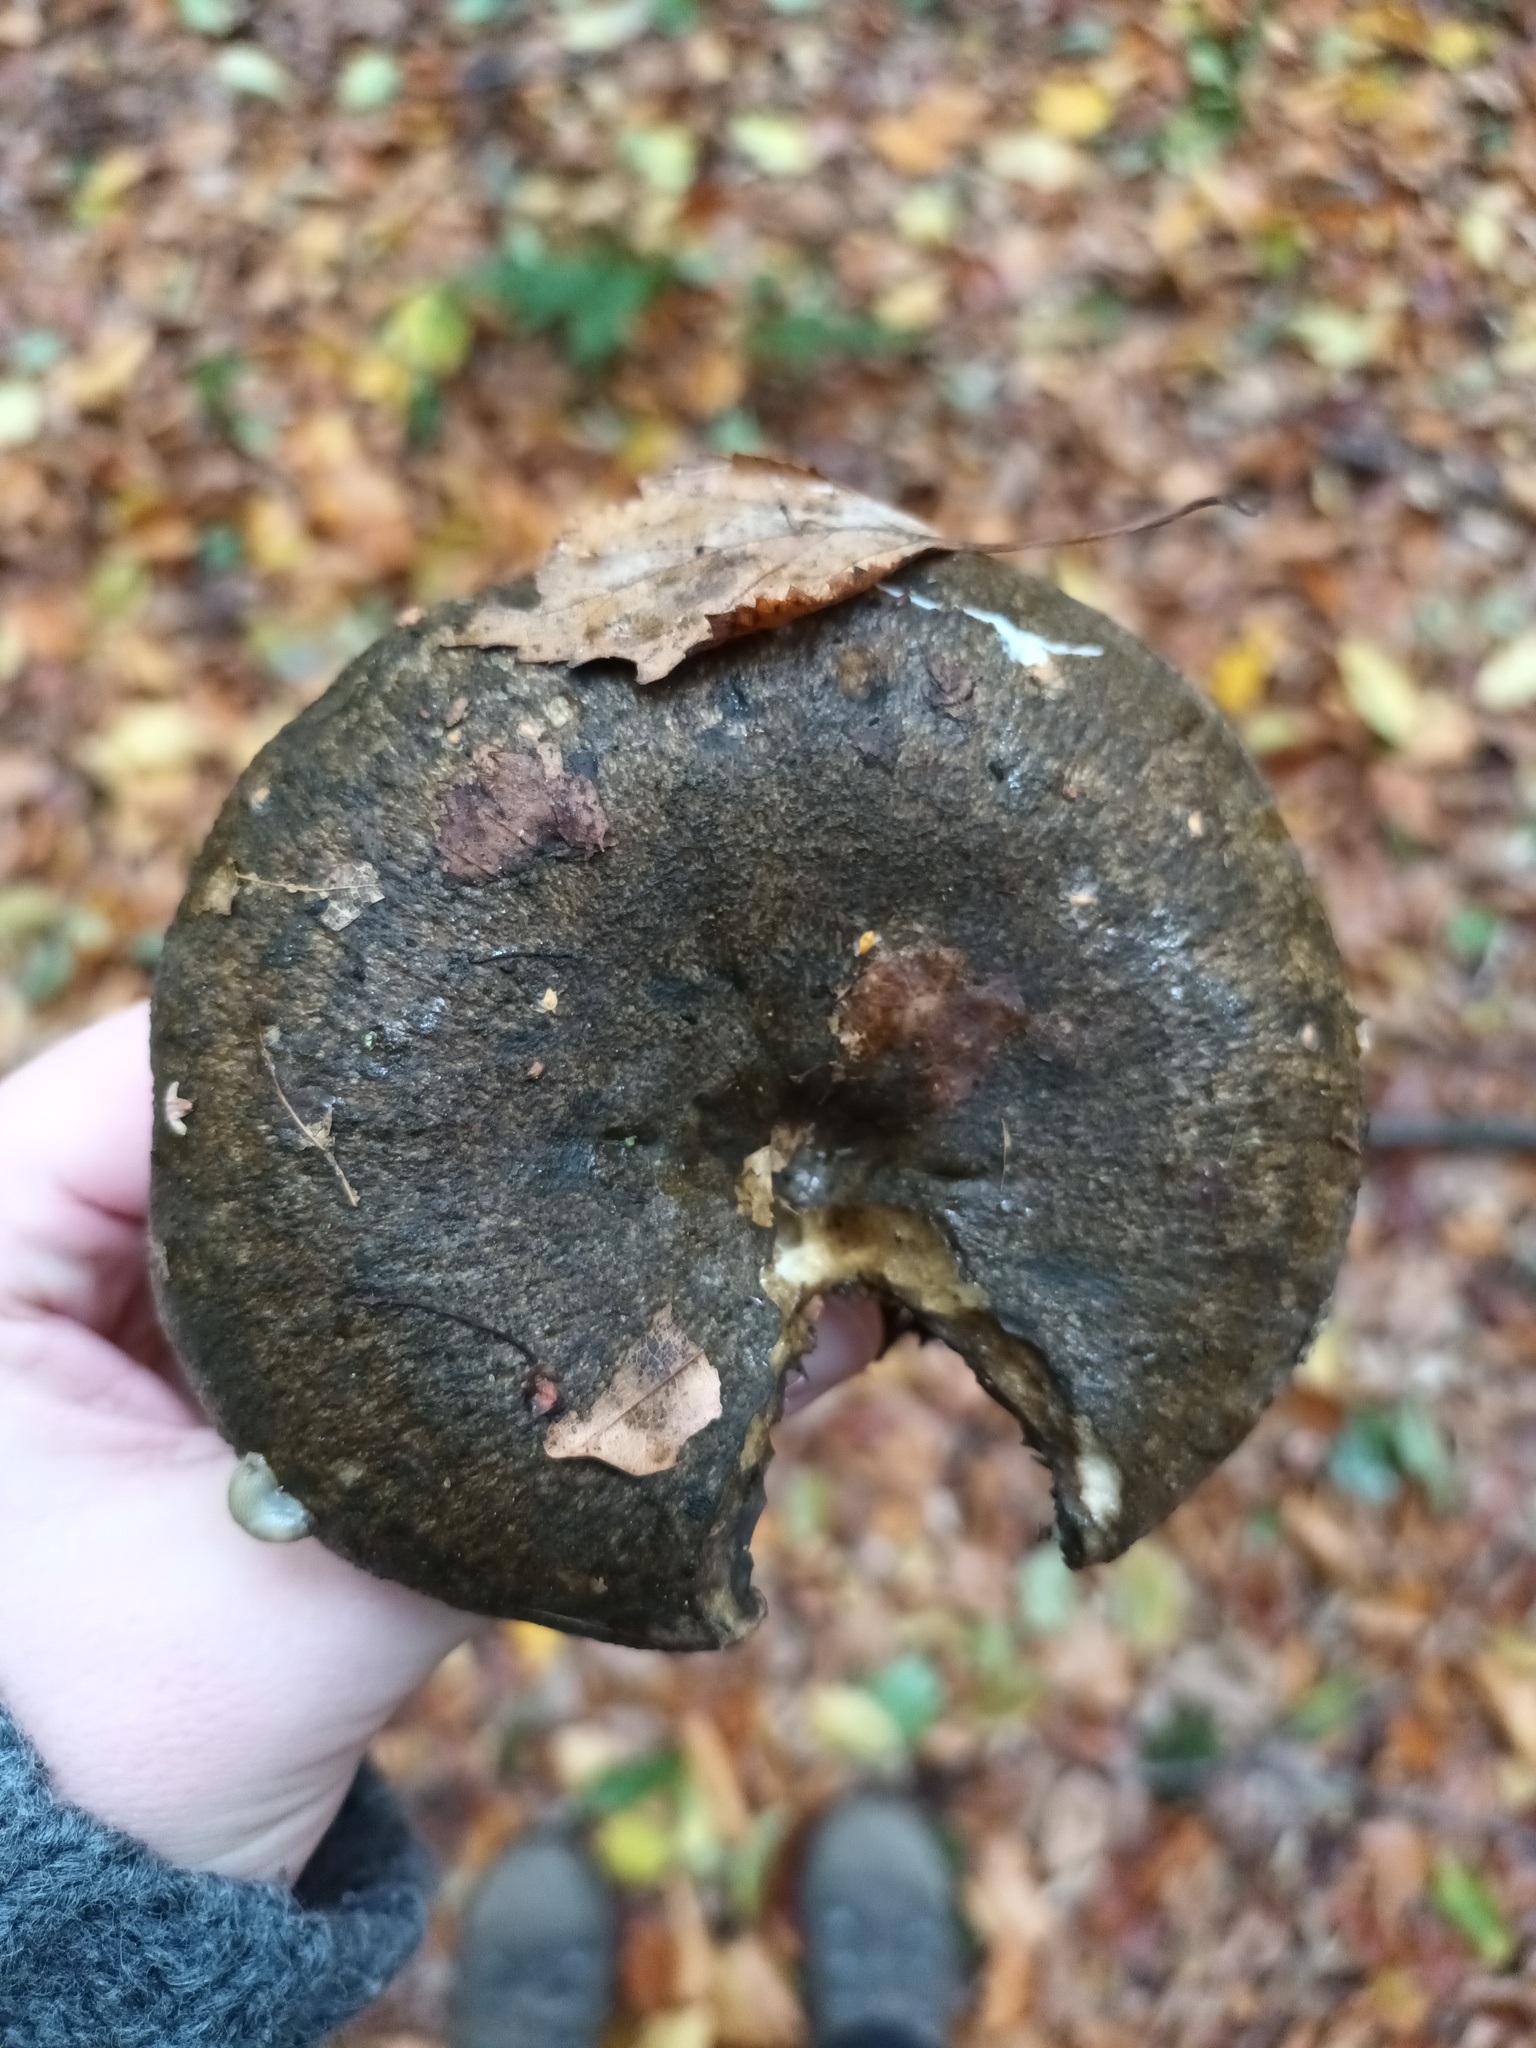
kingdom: Fungi
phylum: Basidiomycota
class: Agaricomycetes
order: Russulales
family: Russulaceae
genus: Lactarius
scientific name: Lactarius turpis
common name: Ugly milk-cap
